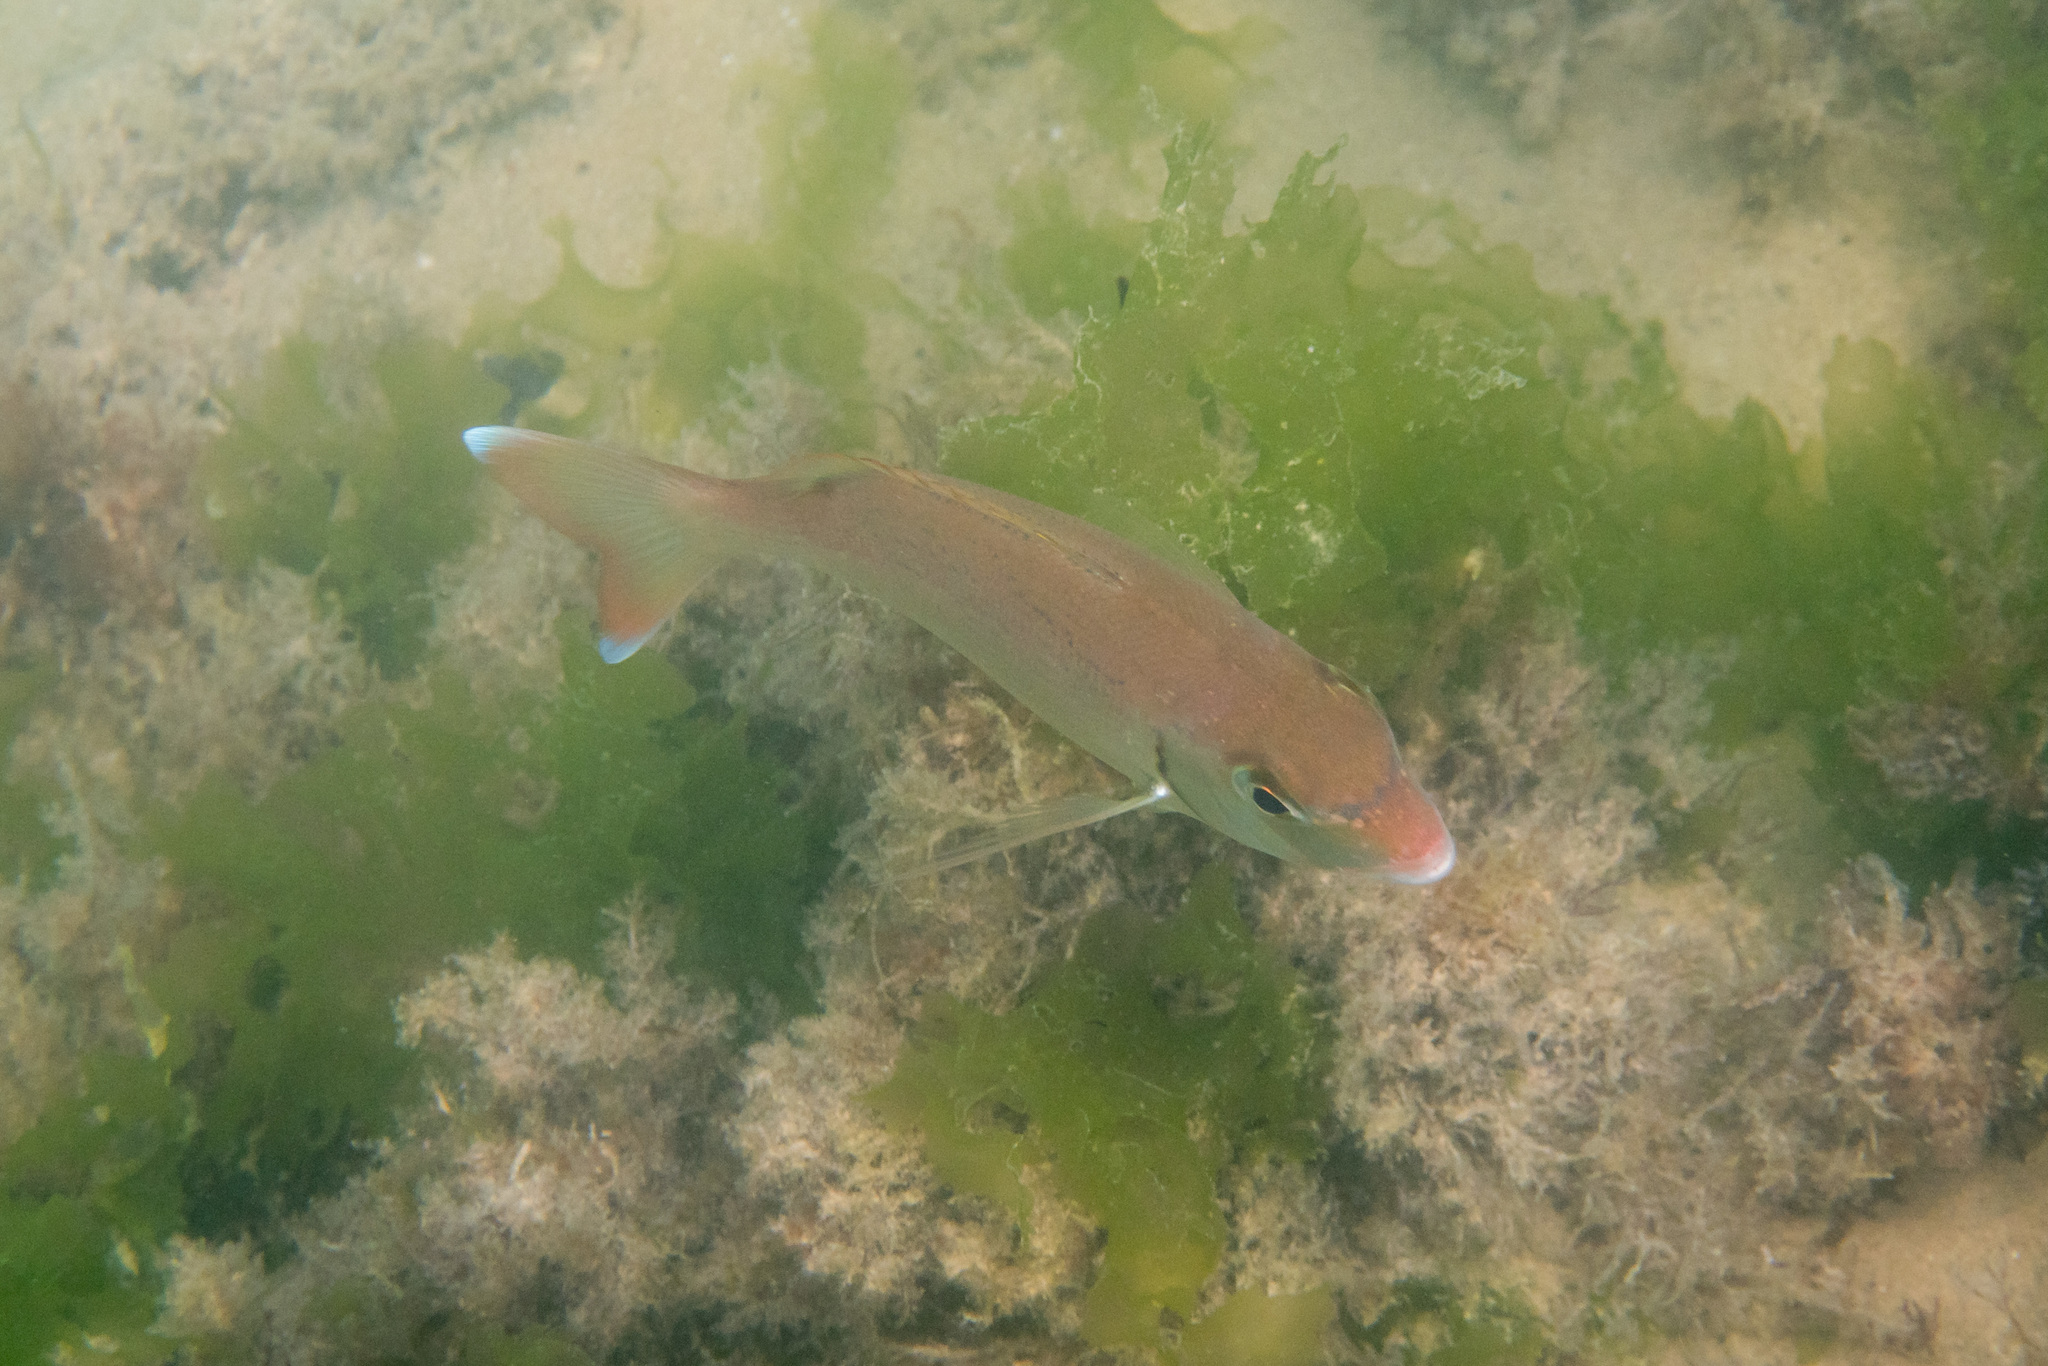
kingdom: Animalia
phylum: Chordata
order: Perciformes
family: Sparidae
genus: Pagrus
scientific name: Pagrus pagrus
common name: Red porgy
